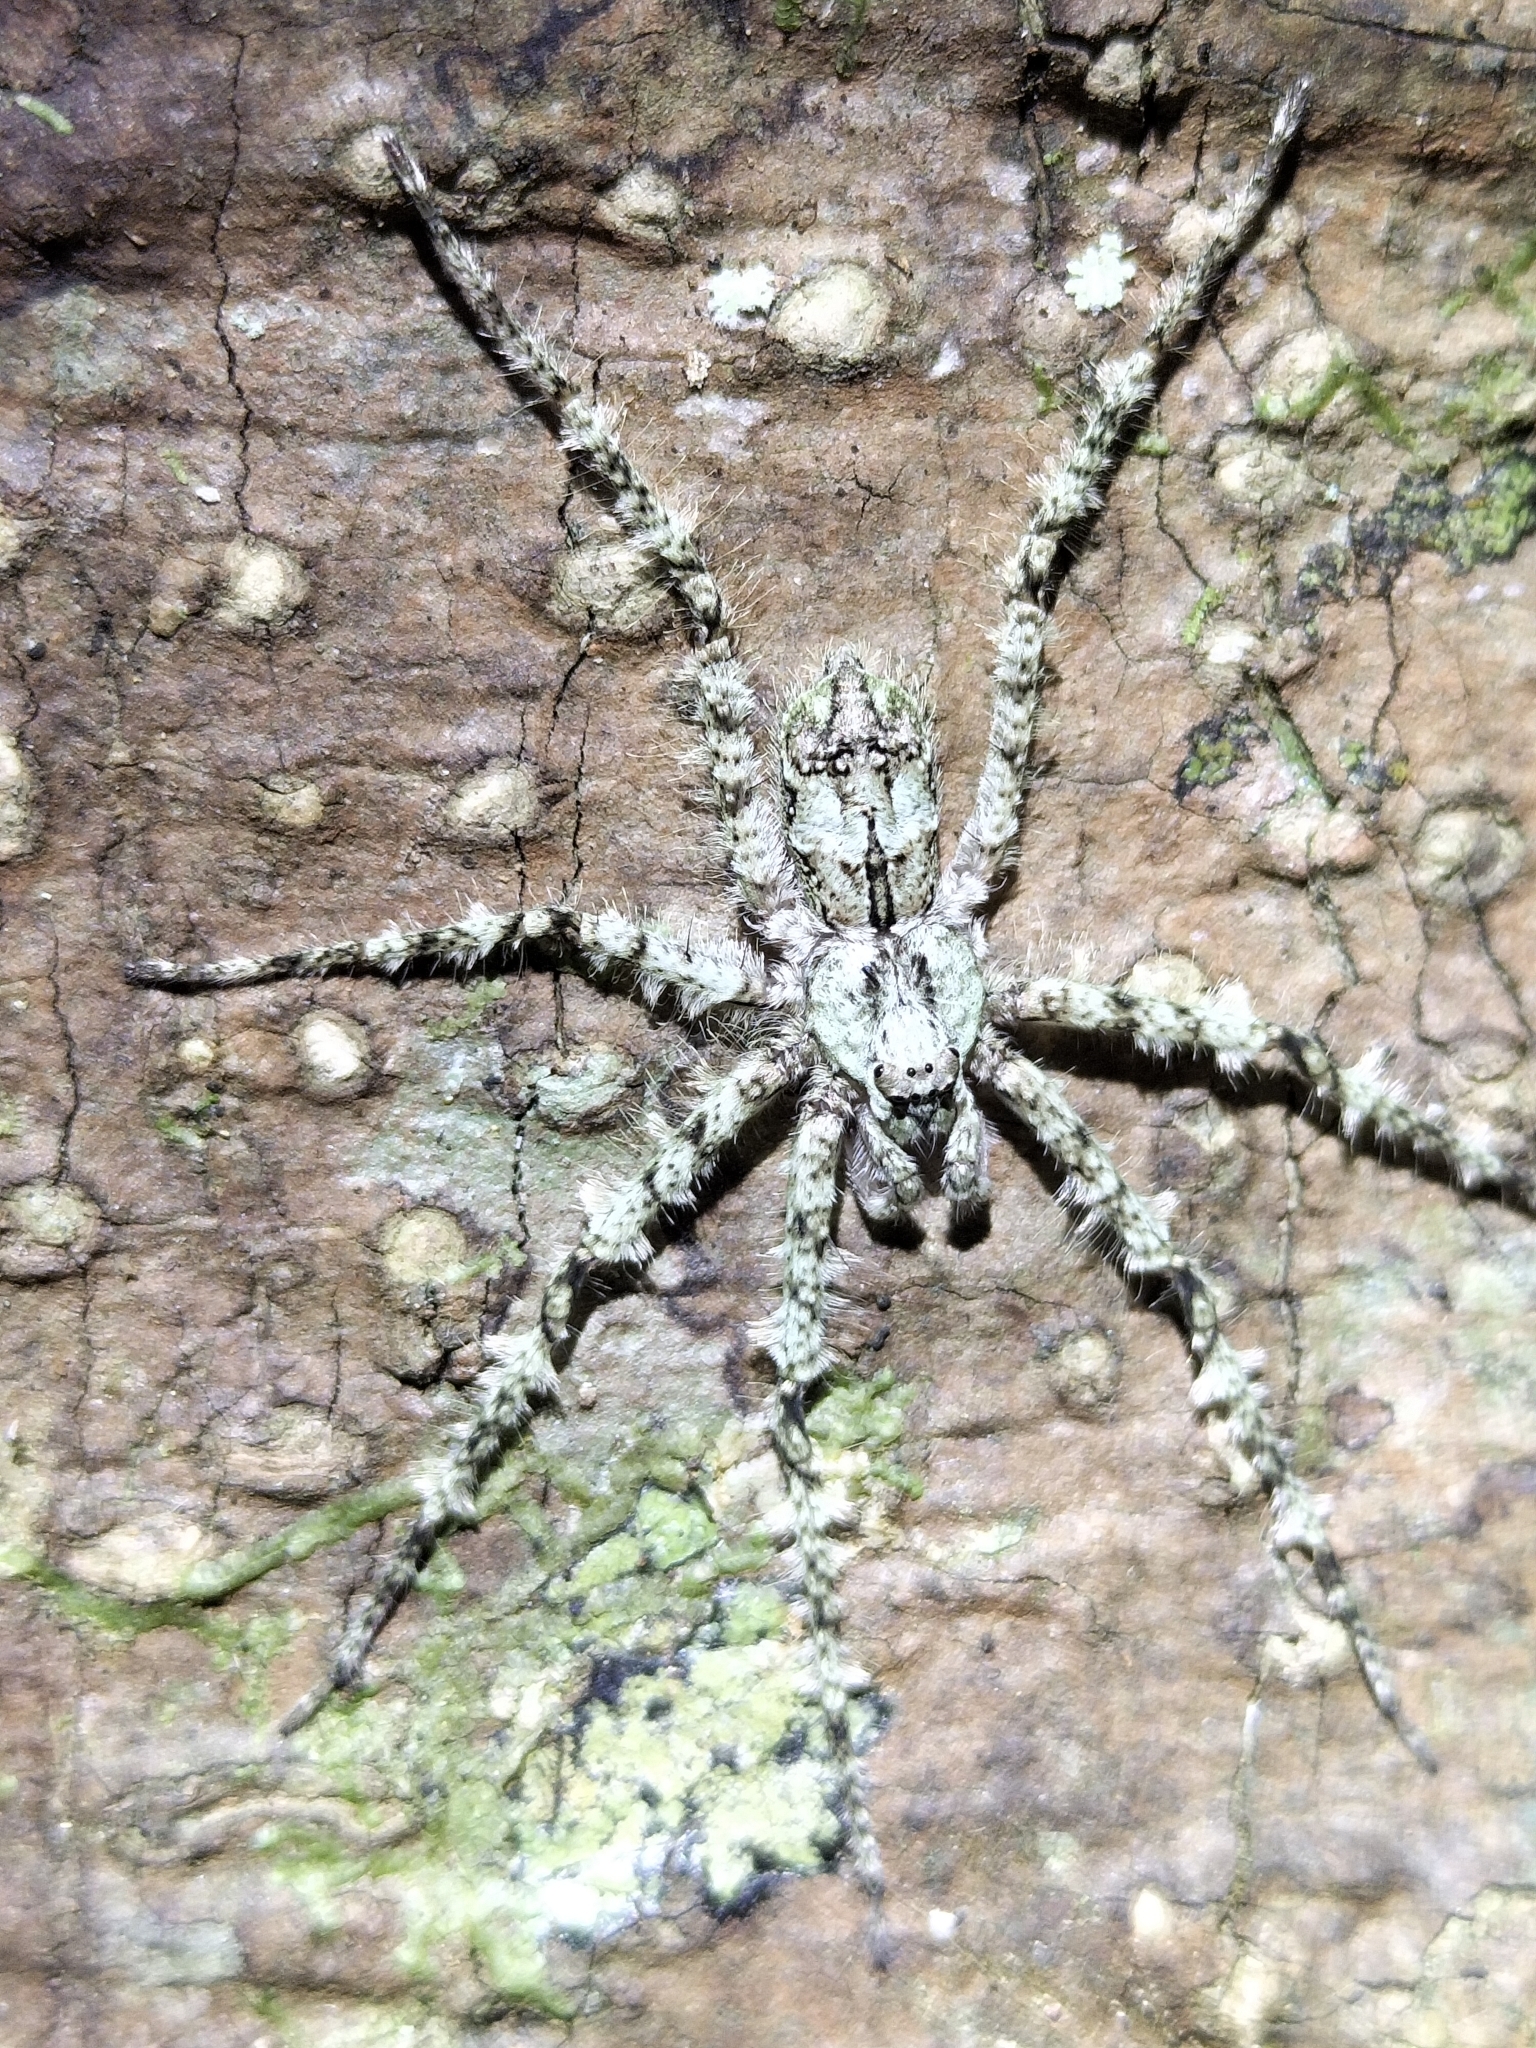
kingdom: Animalia
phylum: Arthropoda
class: Arachnida
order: Araneae
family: Sparassidae
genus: Pandercetes
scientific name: Pandercetes gracilis
